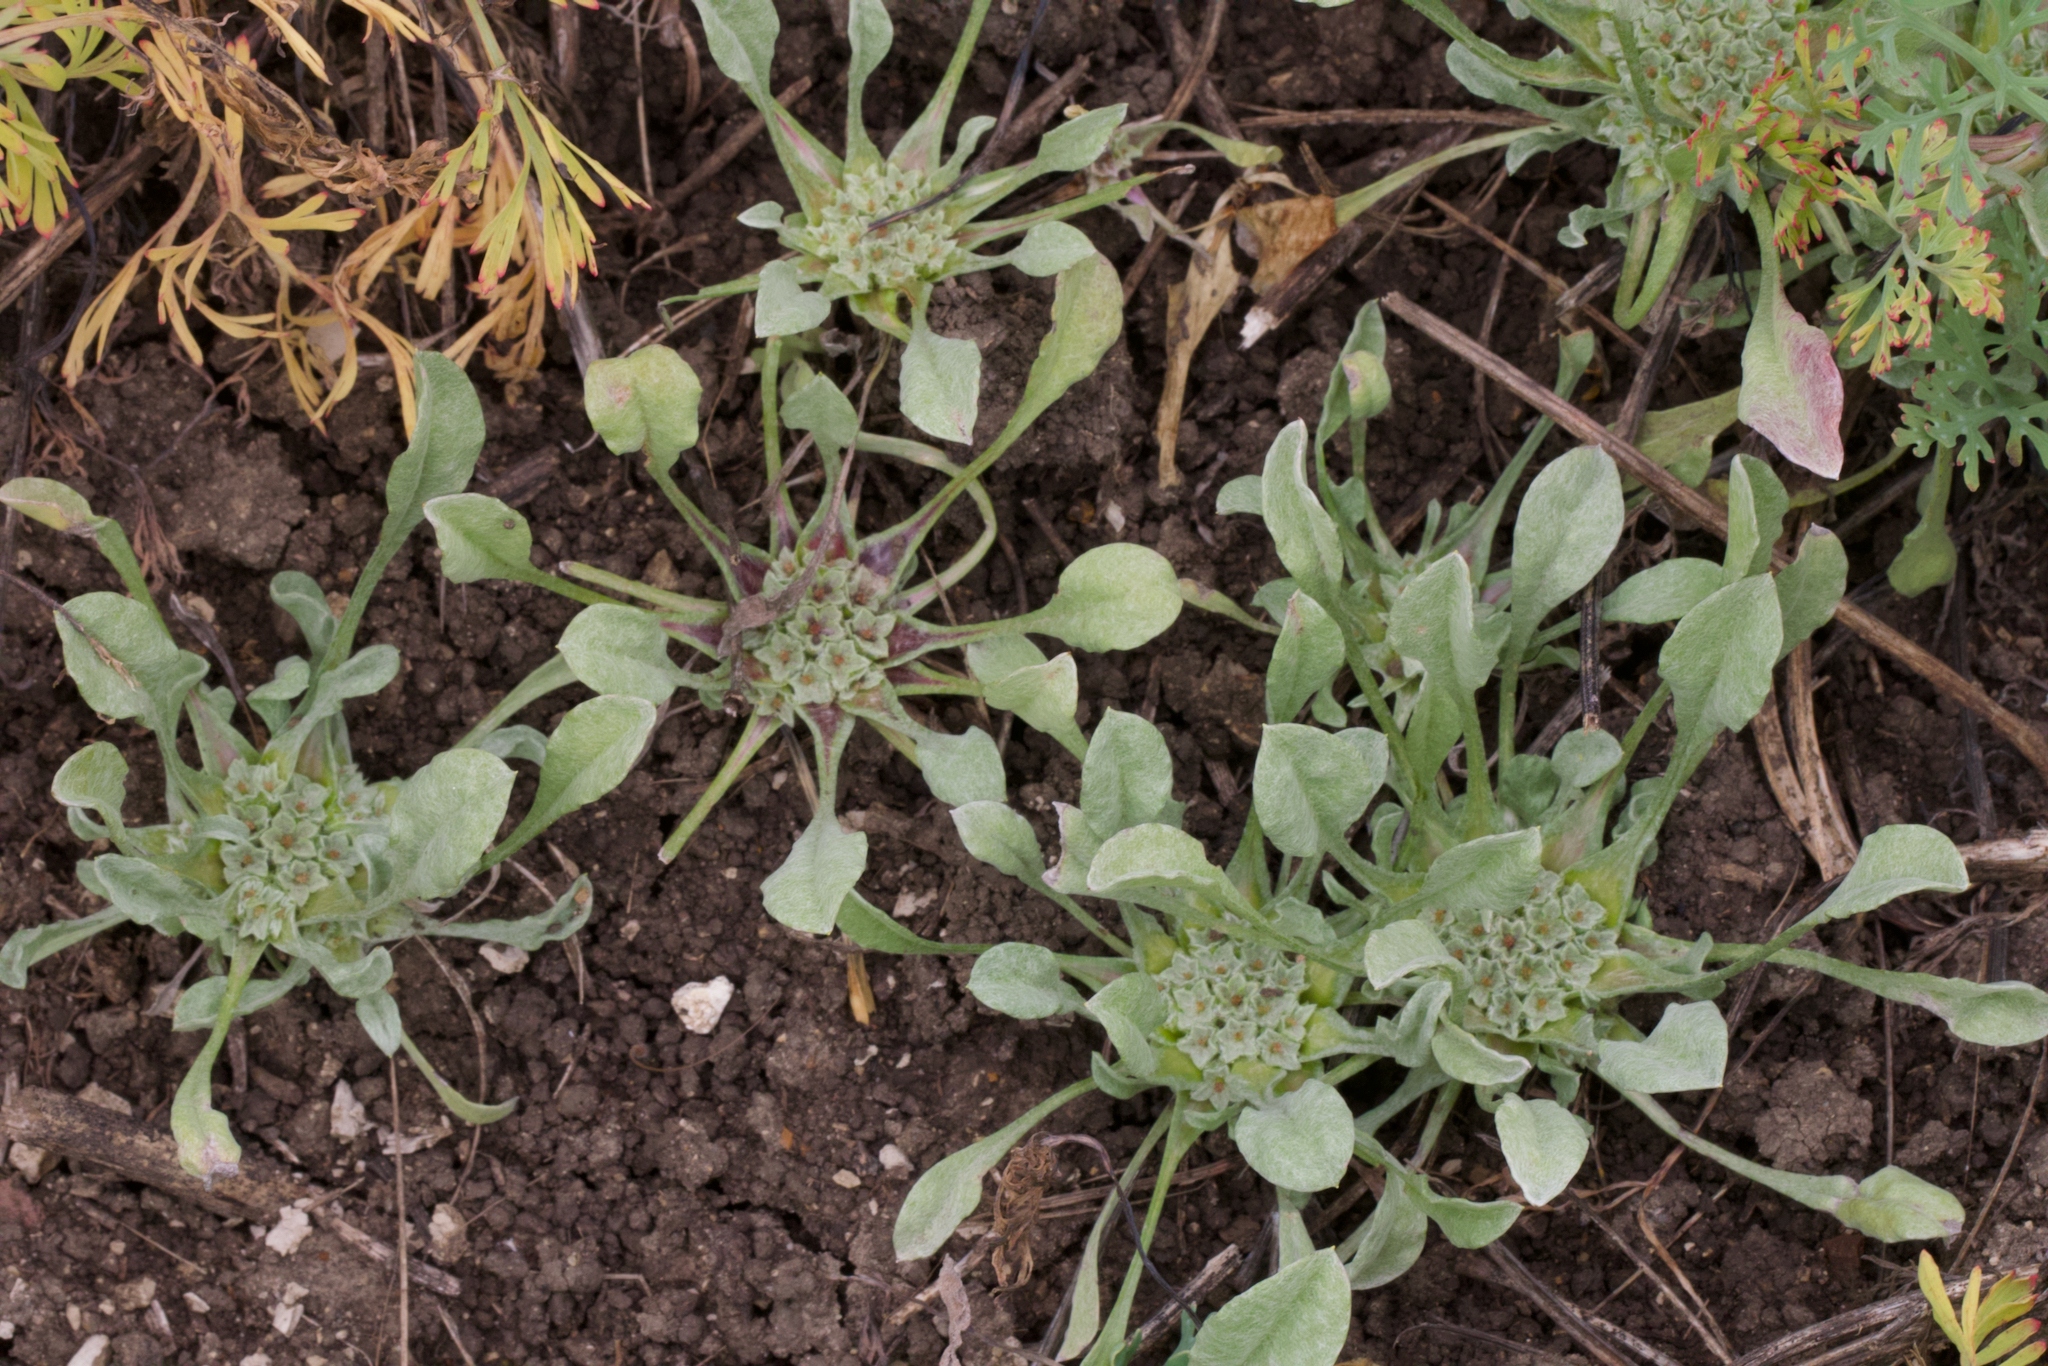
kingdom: Plantae
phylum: Tracheophyta
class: Magnoliopsida
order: Asterales
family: Asteraceae
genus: Hesperevax
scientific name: Hesperevax caulescens
